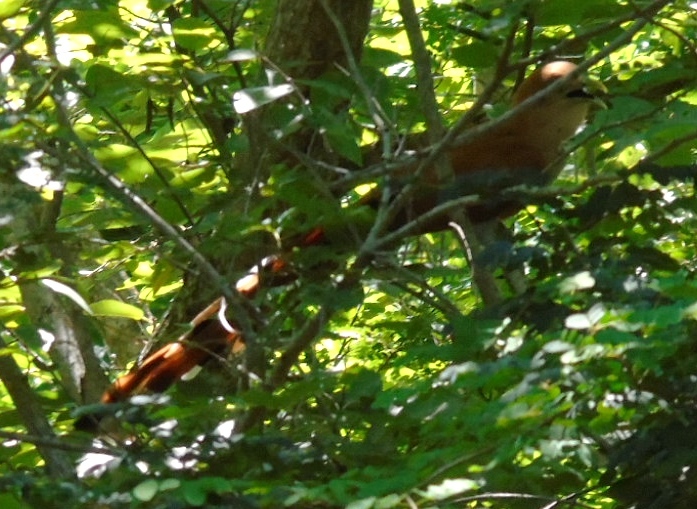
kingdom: Animalia
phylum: Chordata
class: Aves
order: Cuculiformes
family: Cuculidae
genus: Piaya
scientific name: Piaya cayana
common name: Squirrel cuckoo
